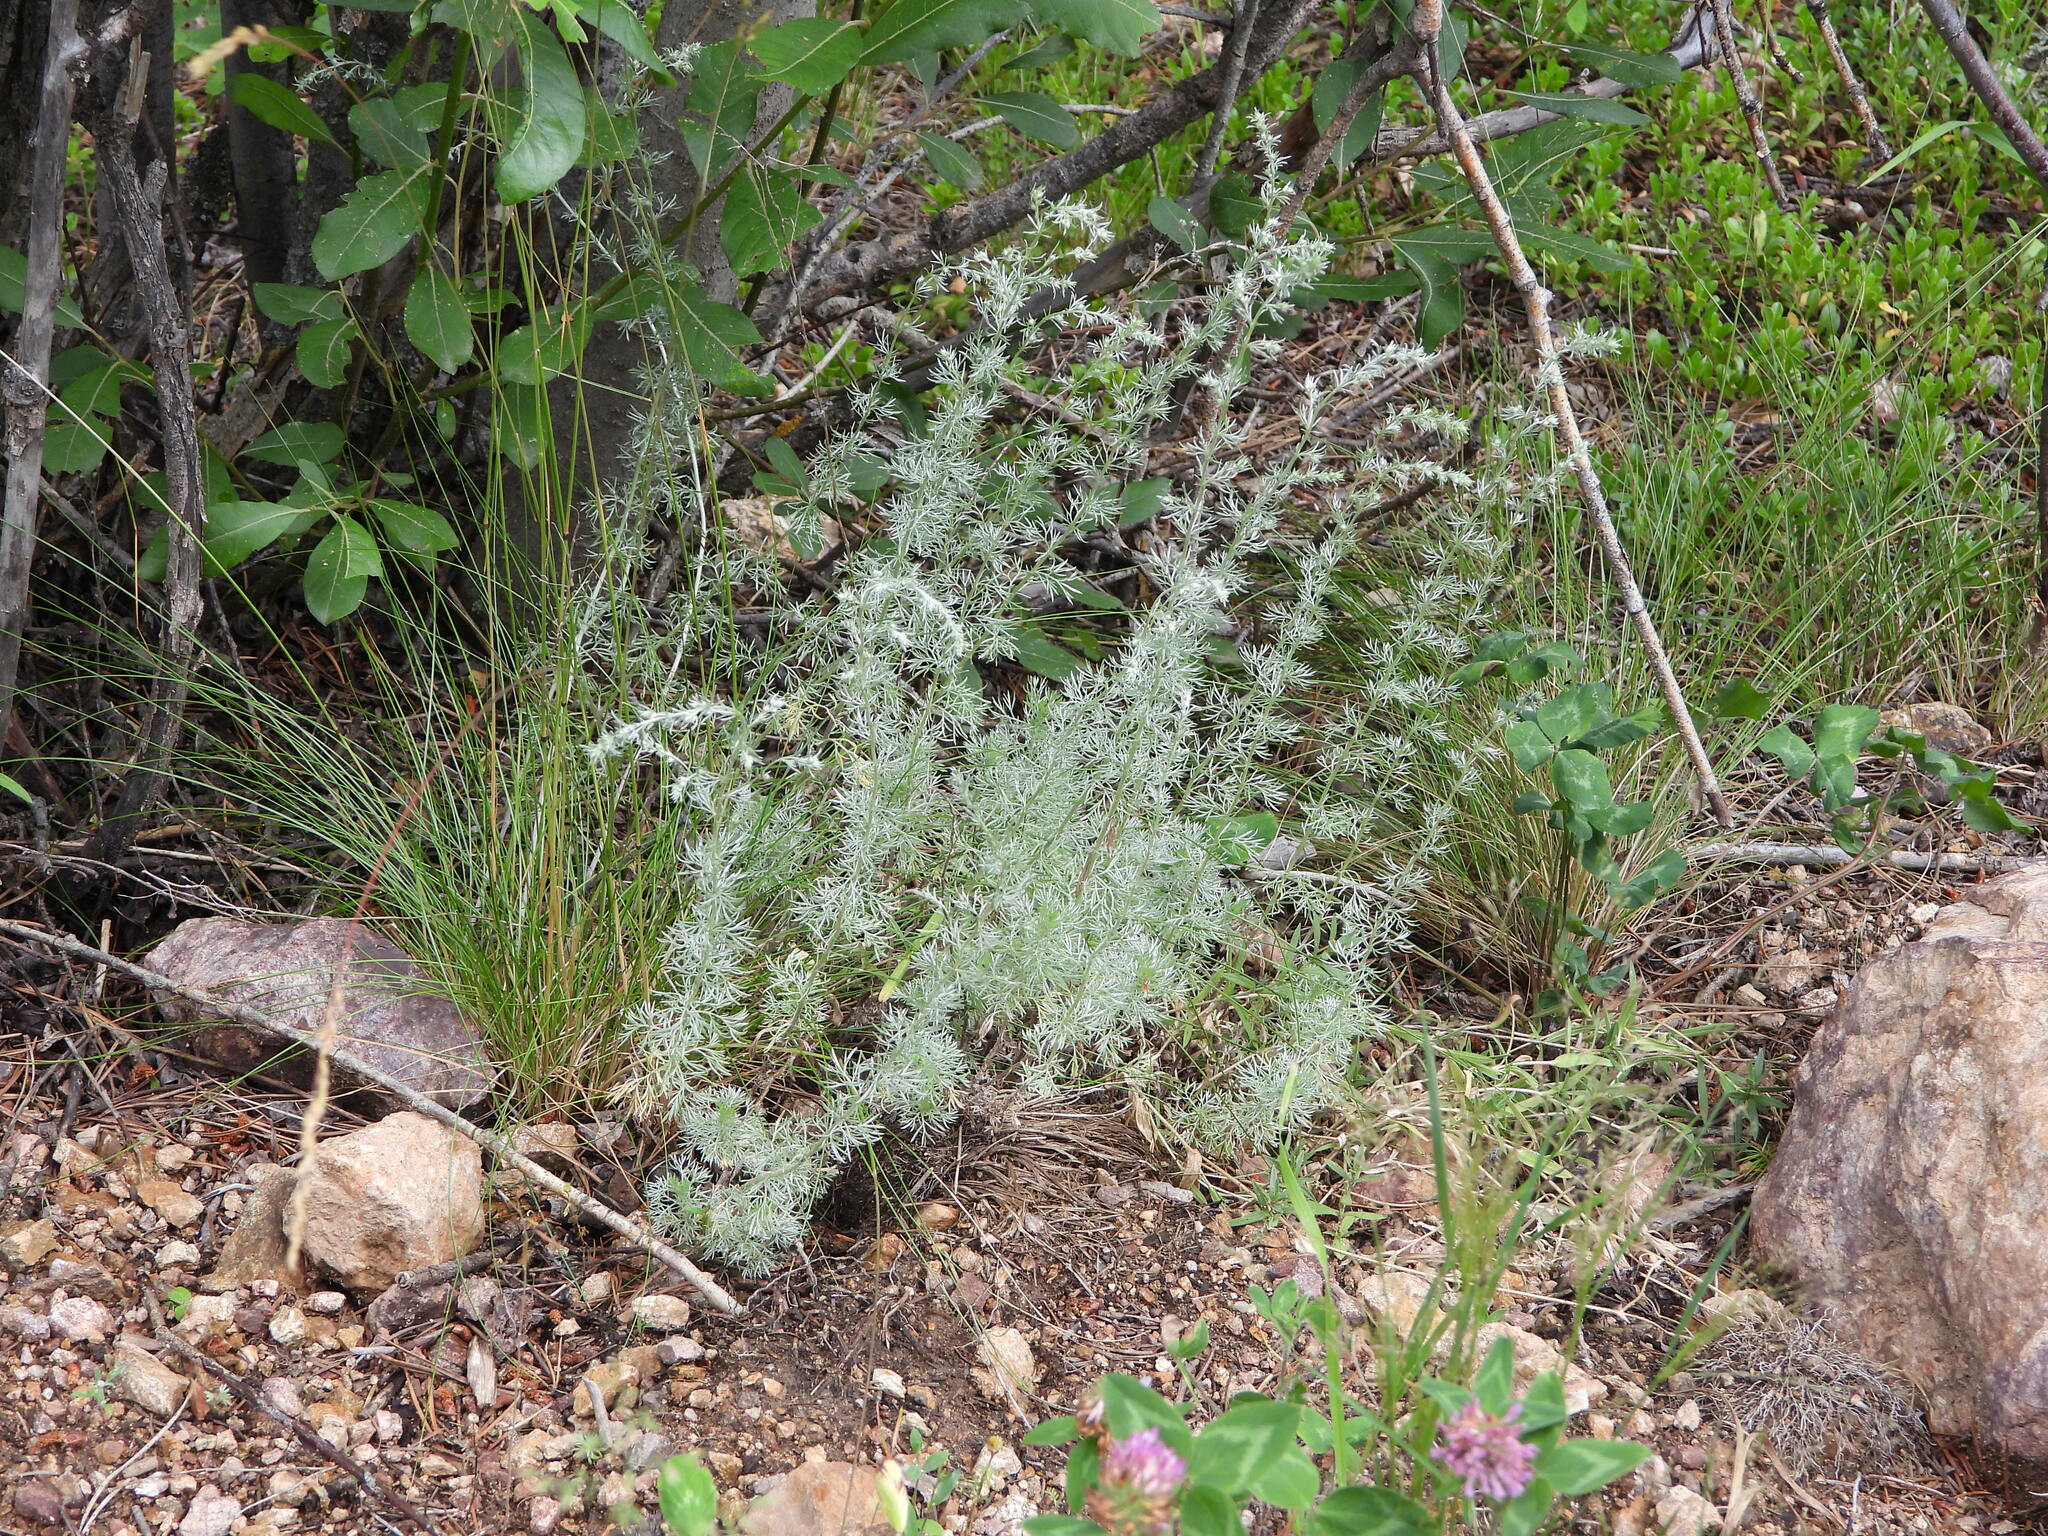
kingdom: Plantae
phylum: Tracheophyta
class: Magnoliopsida
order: Asterales
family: Asteraceae
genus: Artemisia
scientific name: Artemisia frigida
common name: Prairie sagewort
